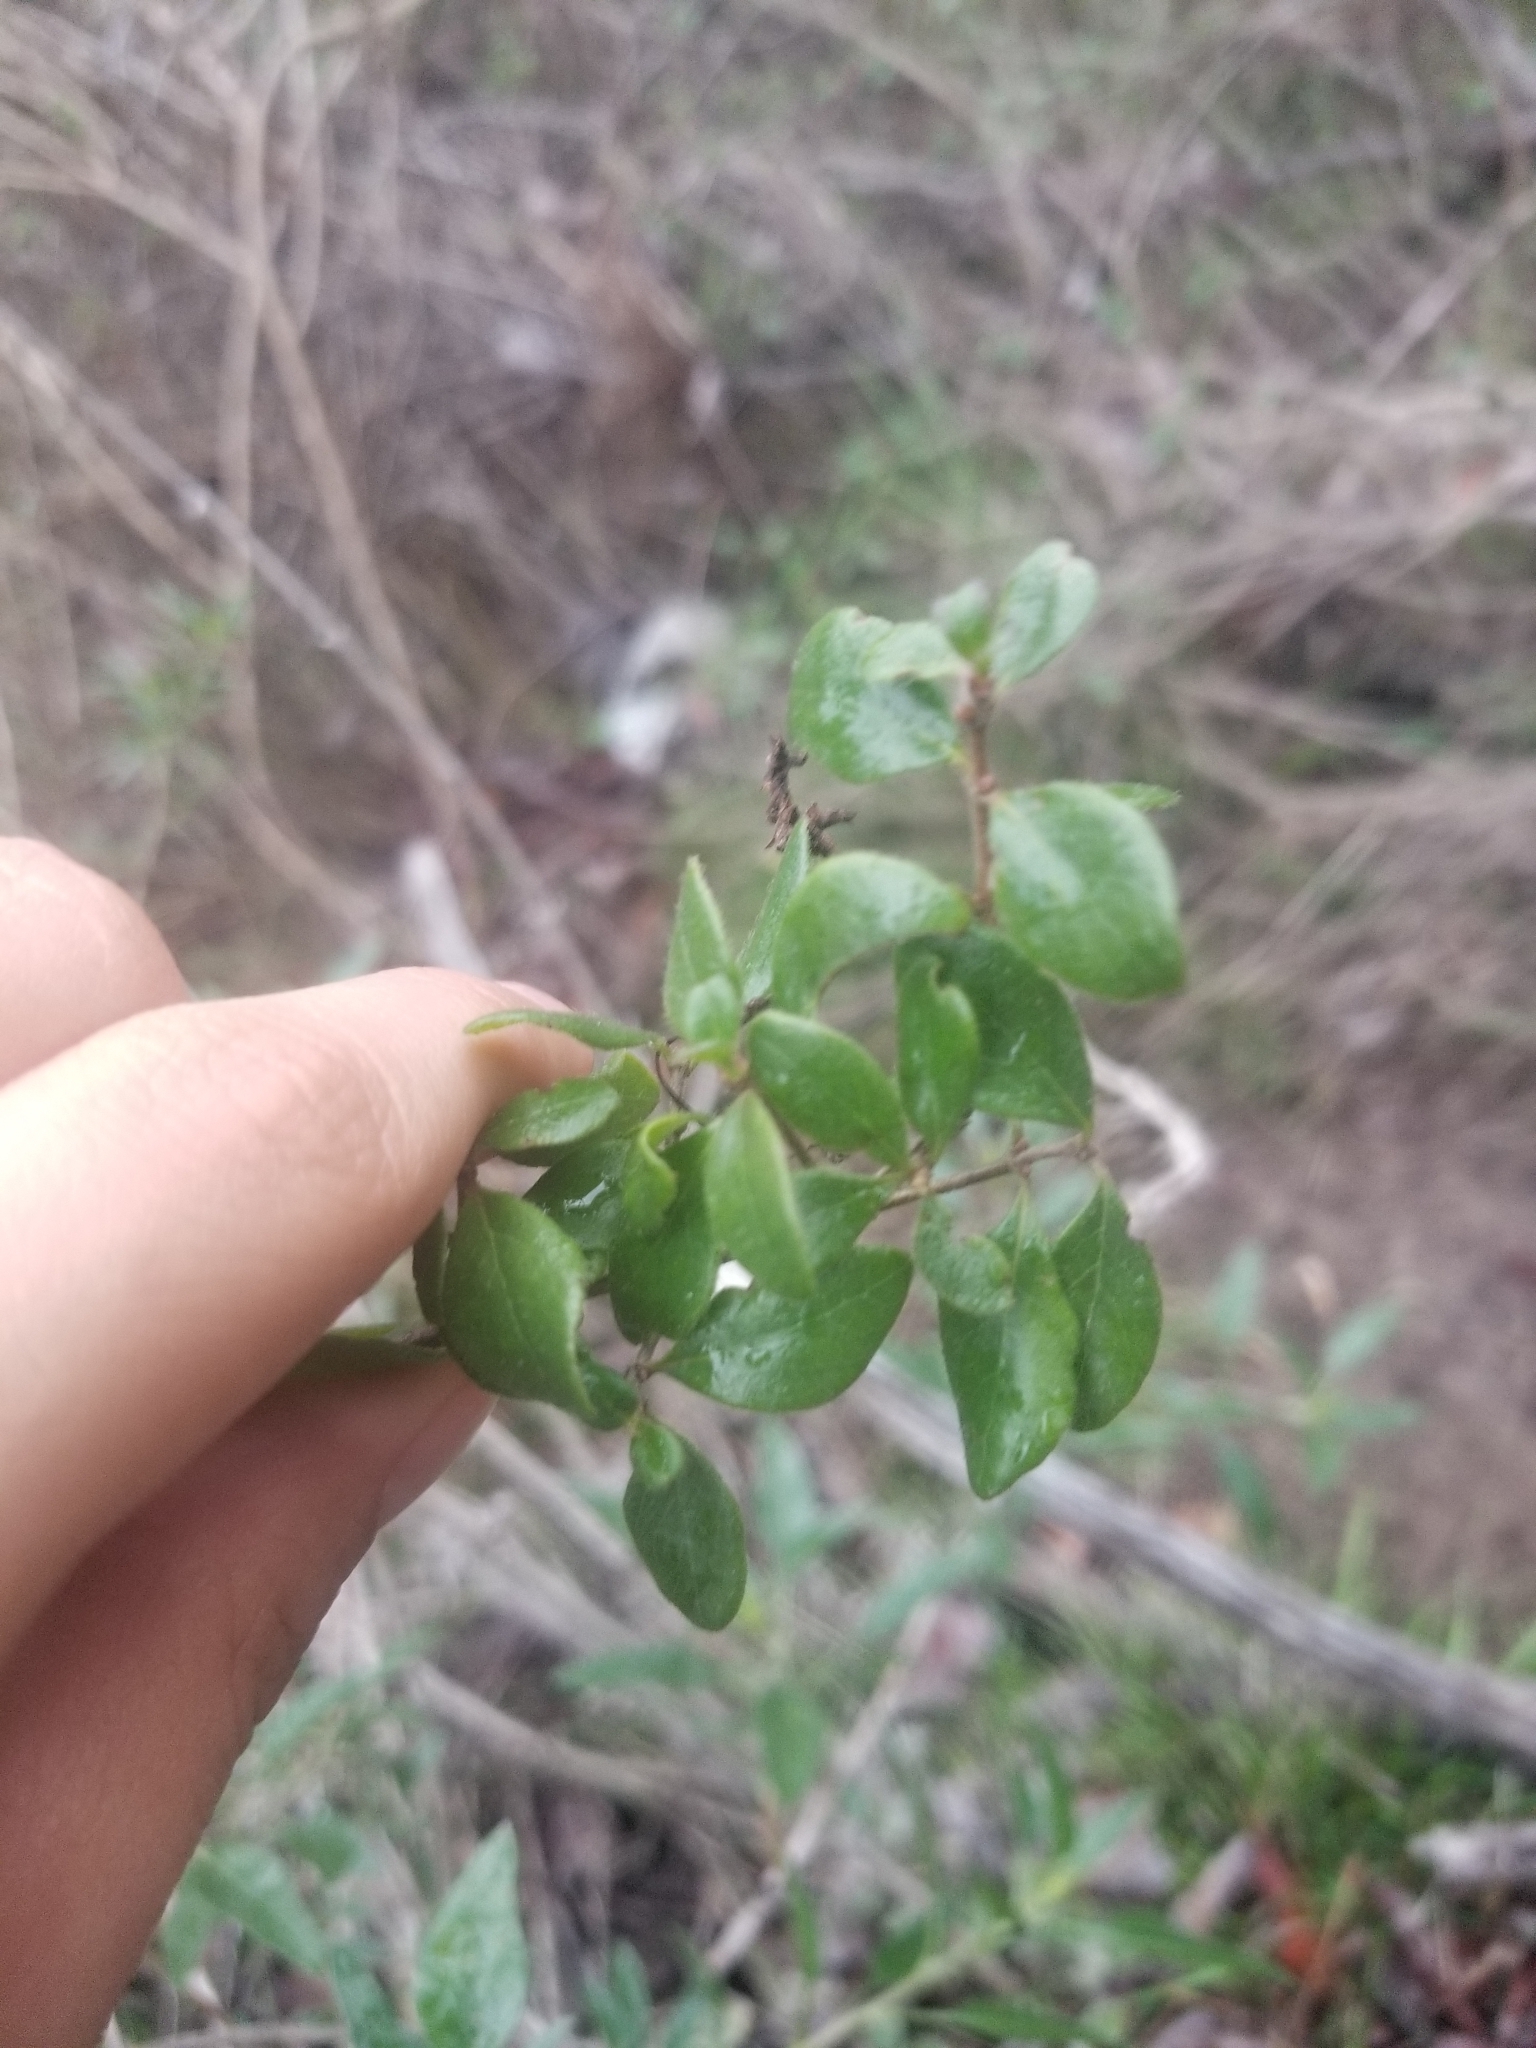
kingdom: Plantae
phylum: Tracheophyta
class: Magnoliopsida
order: Dipsacales
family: Caprifoliaceae
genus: Lonicera
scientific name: Lonicera subspicata
